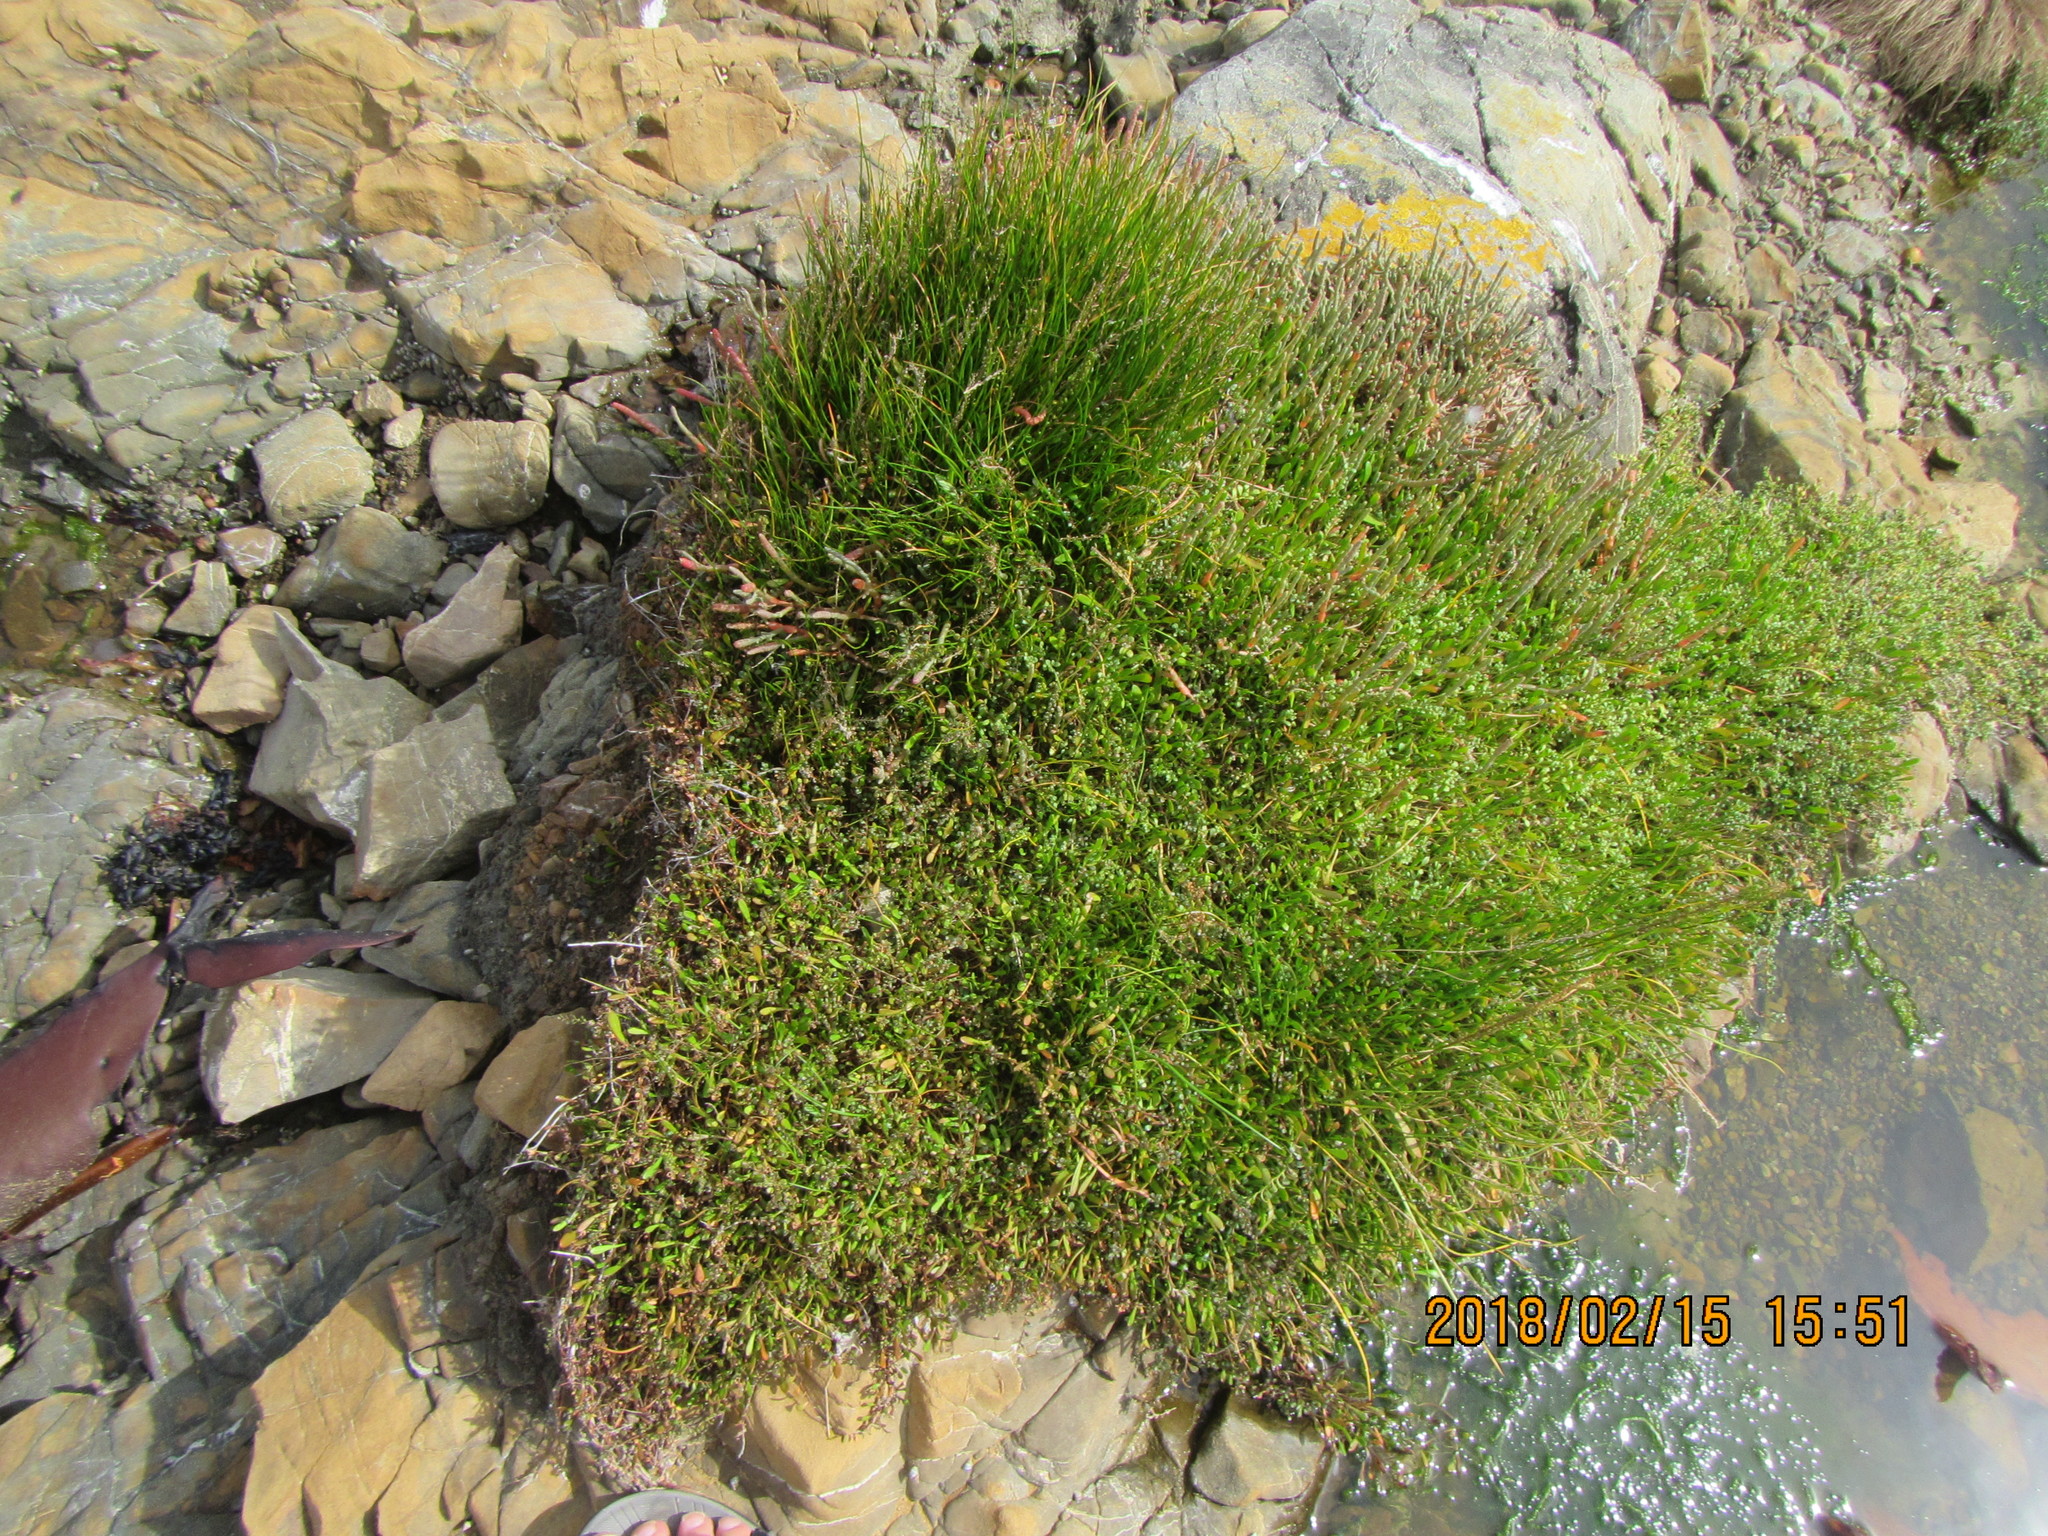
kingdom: Plantae
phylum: Tracheophyta
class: Liliopsida
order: Alismatales
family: Juncaginaceae
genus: Triglochin
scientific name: Triglochin striata
